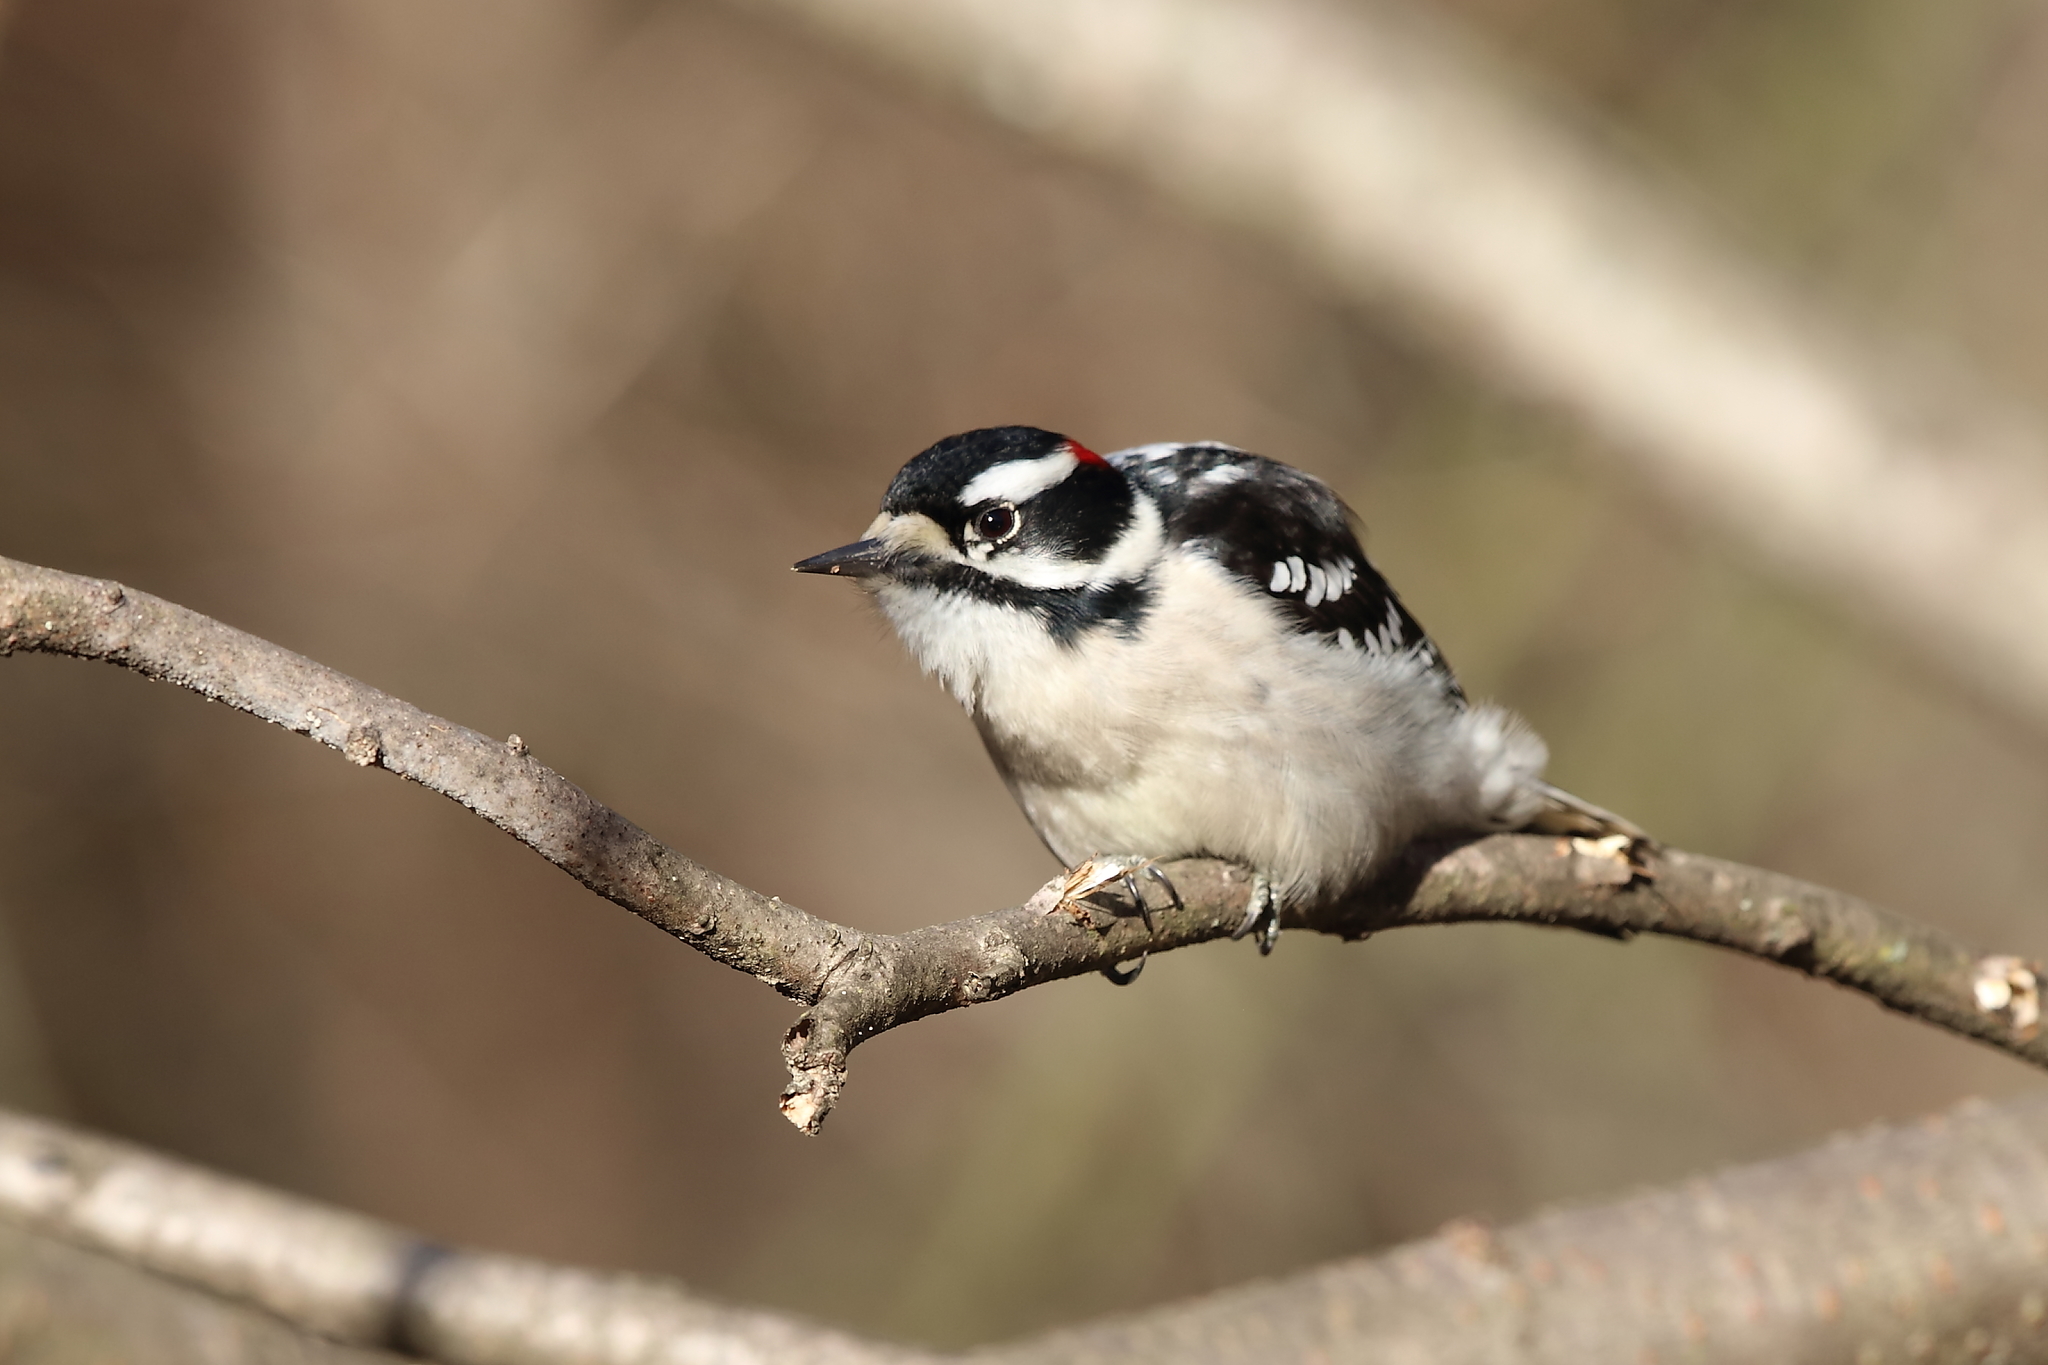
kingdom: Animalia
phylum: Chordata
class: Aves
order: Piciformes
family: Picidae
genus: Dryobates
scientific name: Dryobates pubescens
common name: Downy woodpecker
